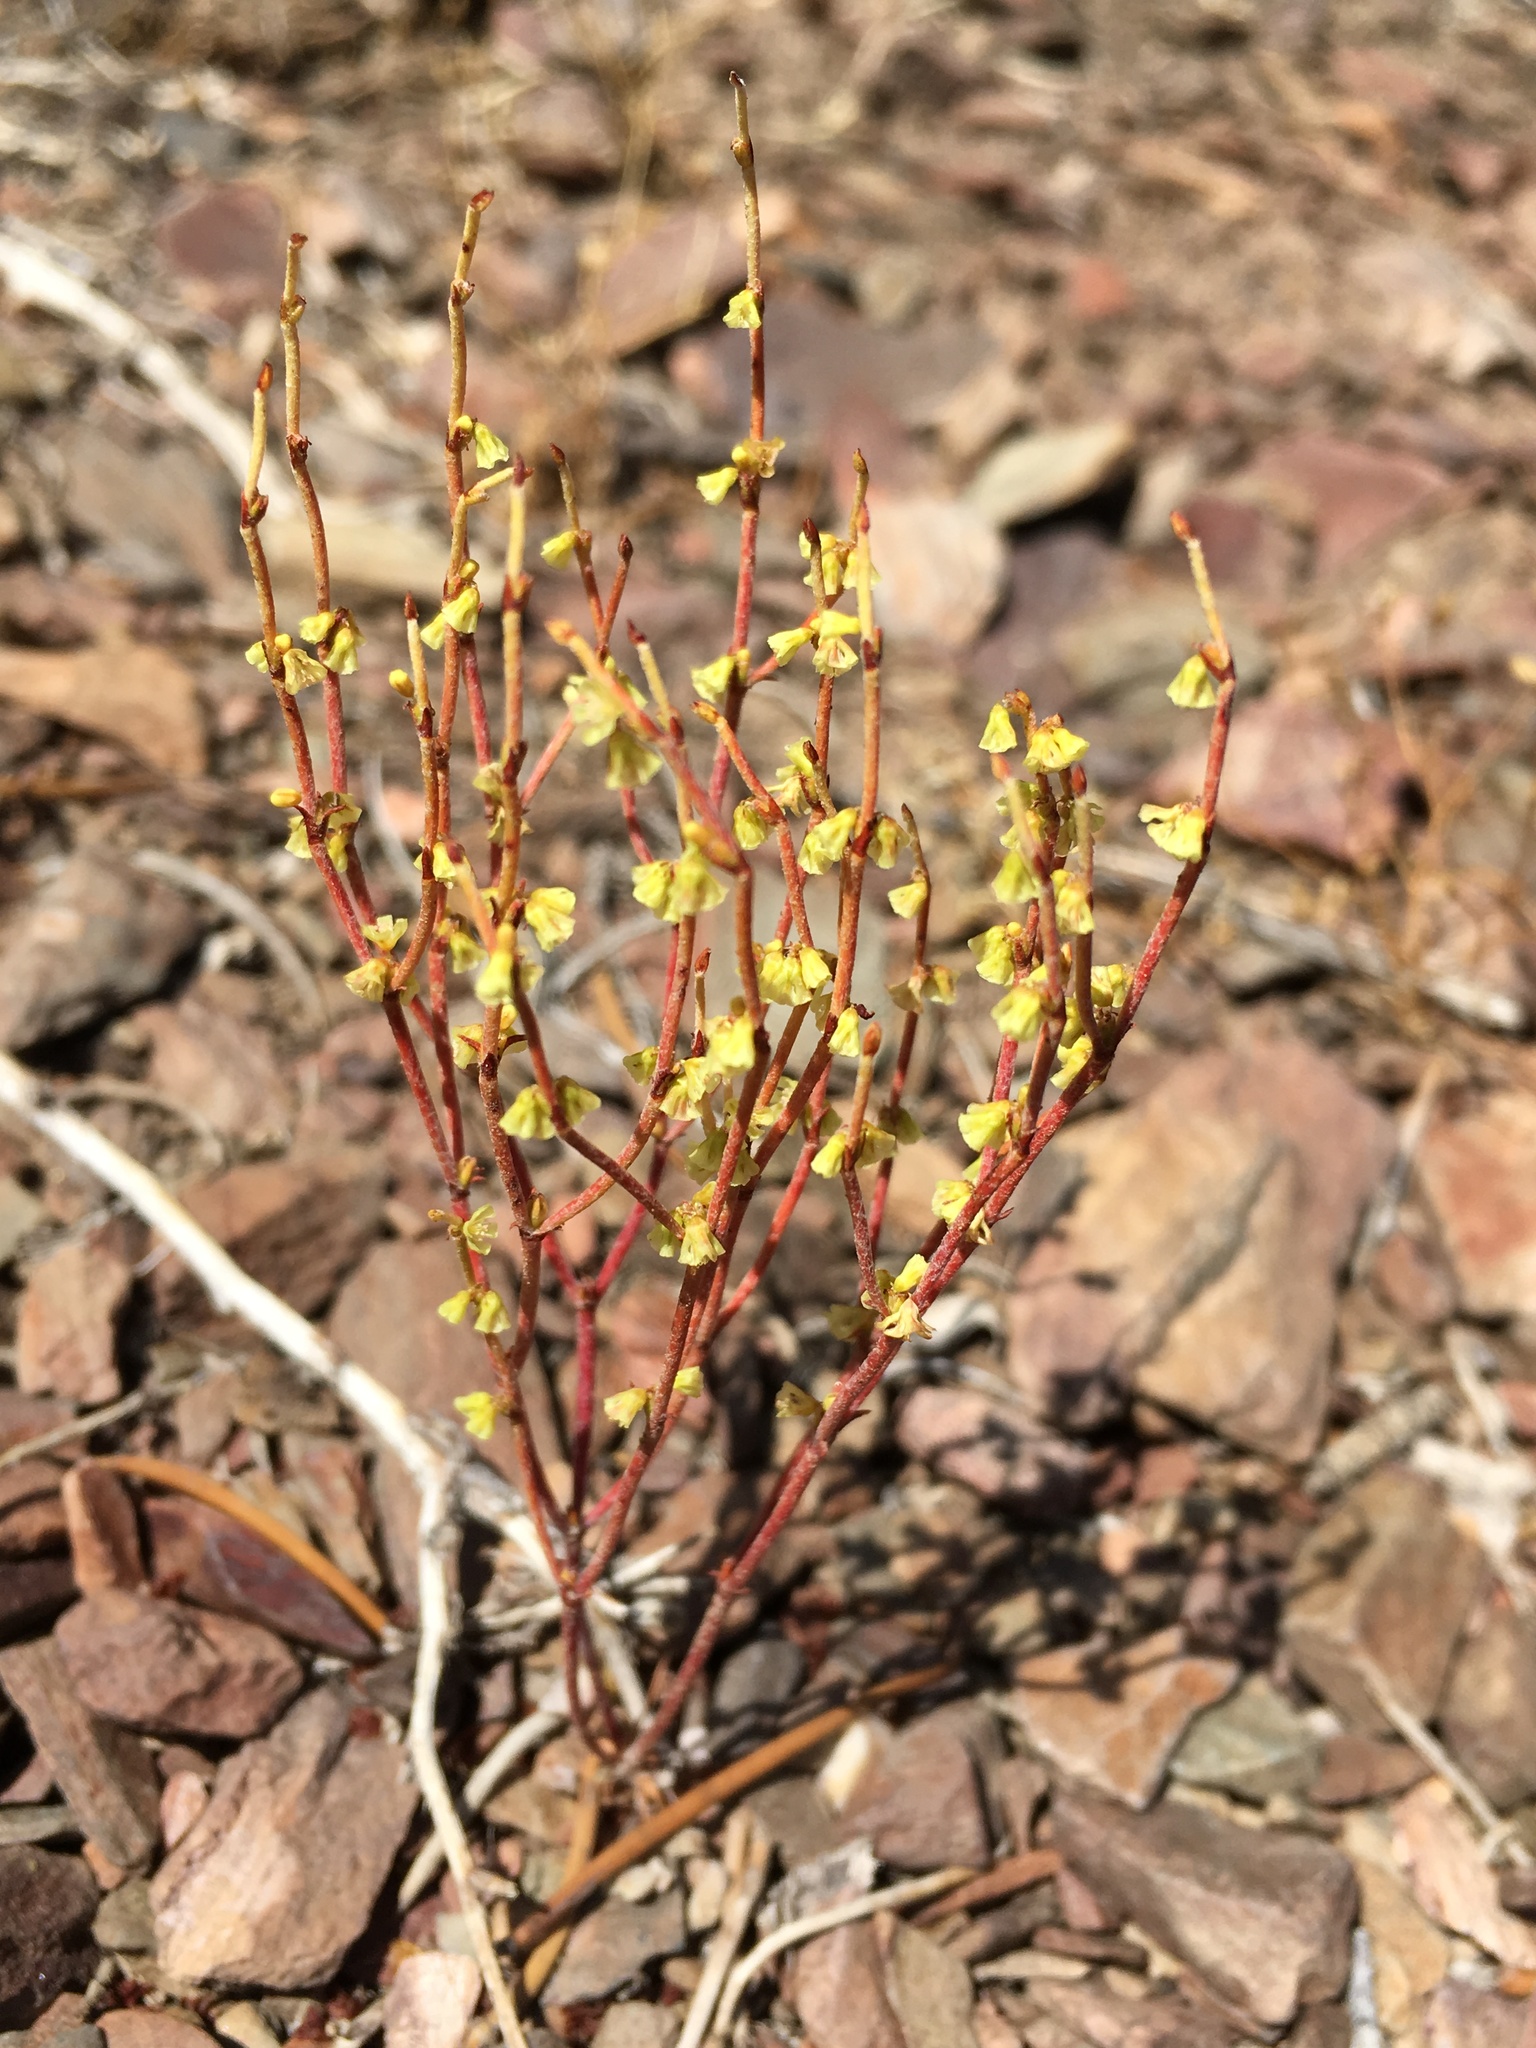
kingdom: Plantae
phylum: Tracheophyta
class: Magnoliopsida
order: Caryophyllales
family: Polygonaceae
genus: Eriogonum
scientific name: Eriogonum nidularium
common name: Bird's-nest wild buckwheat
